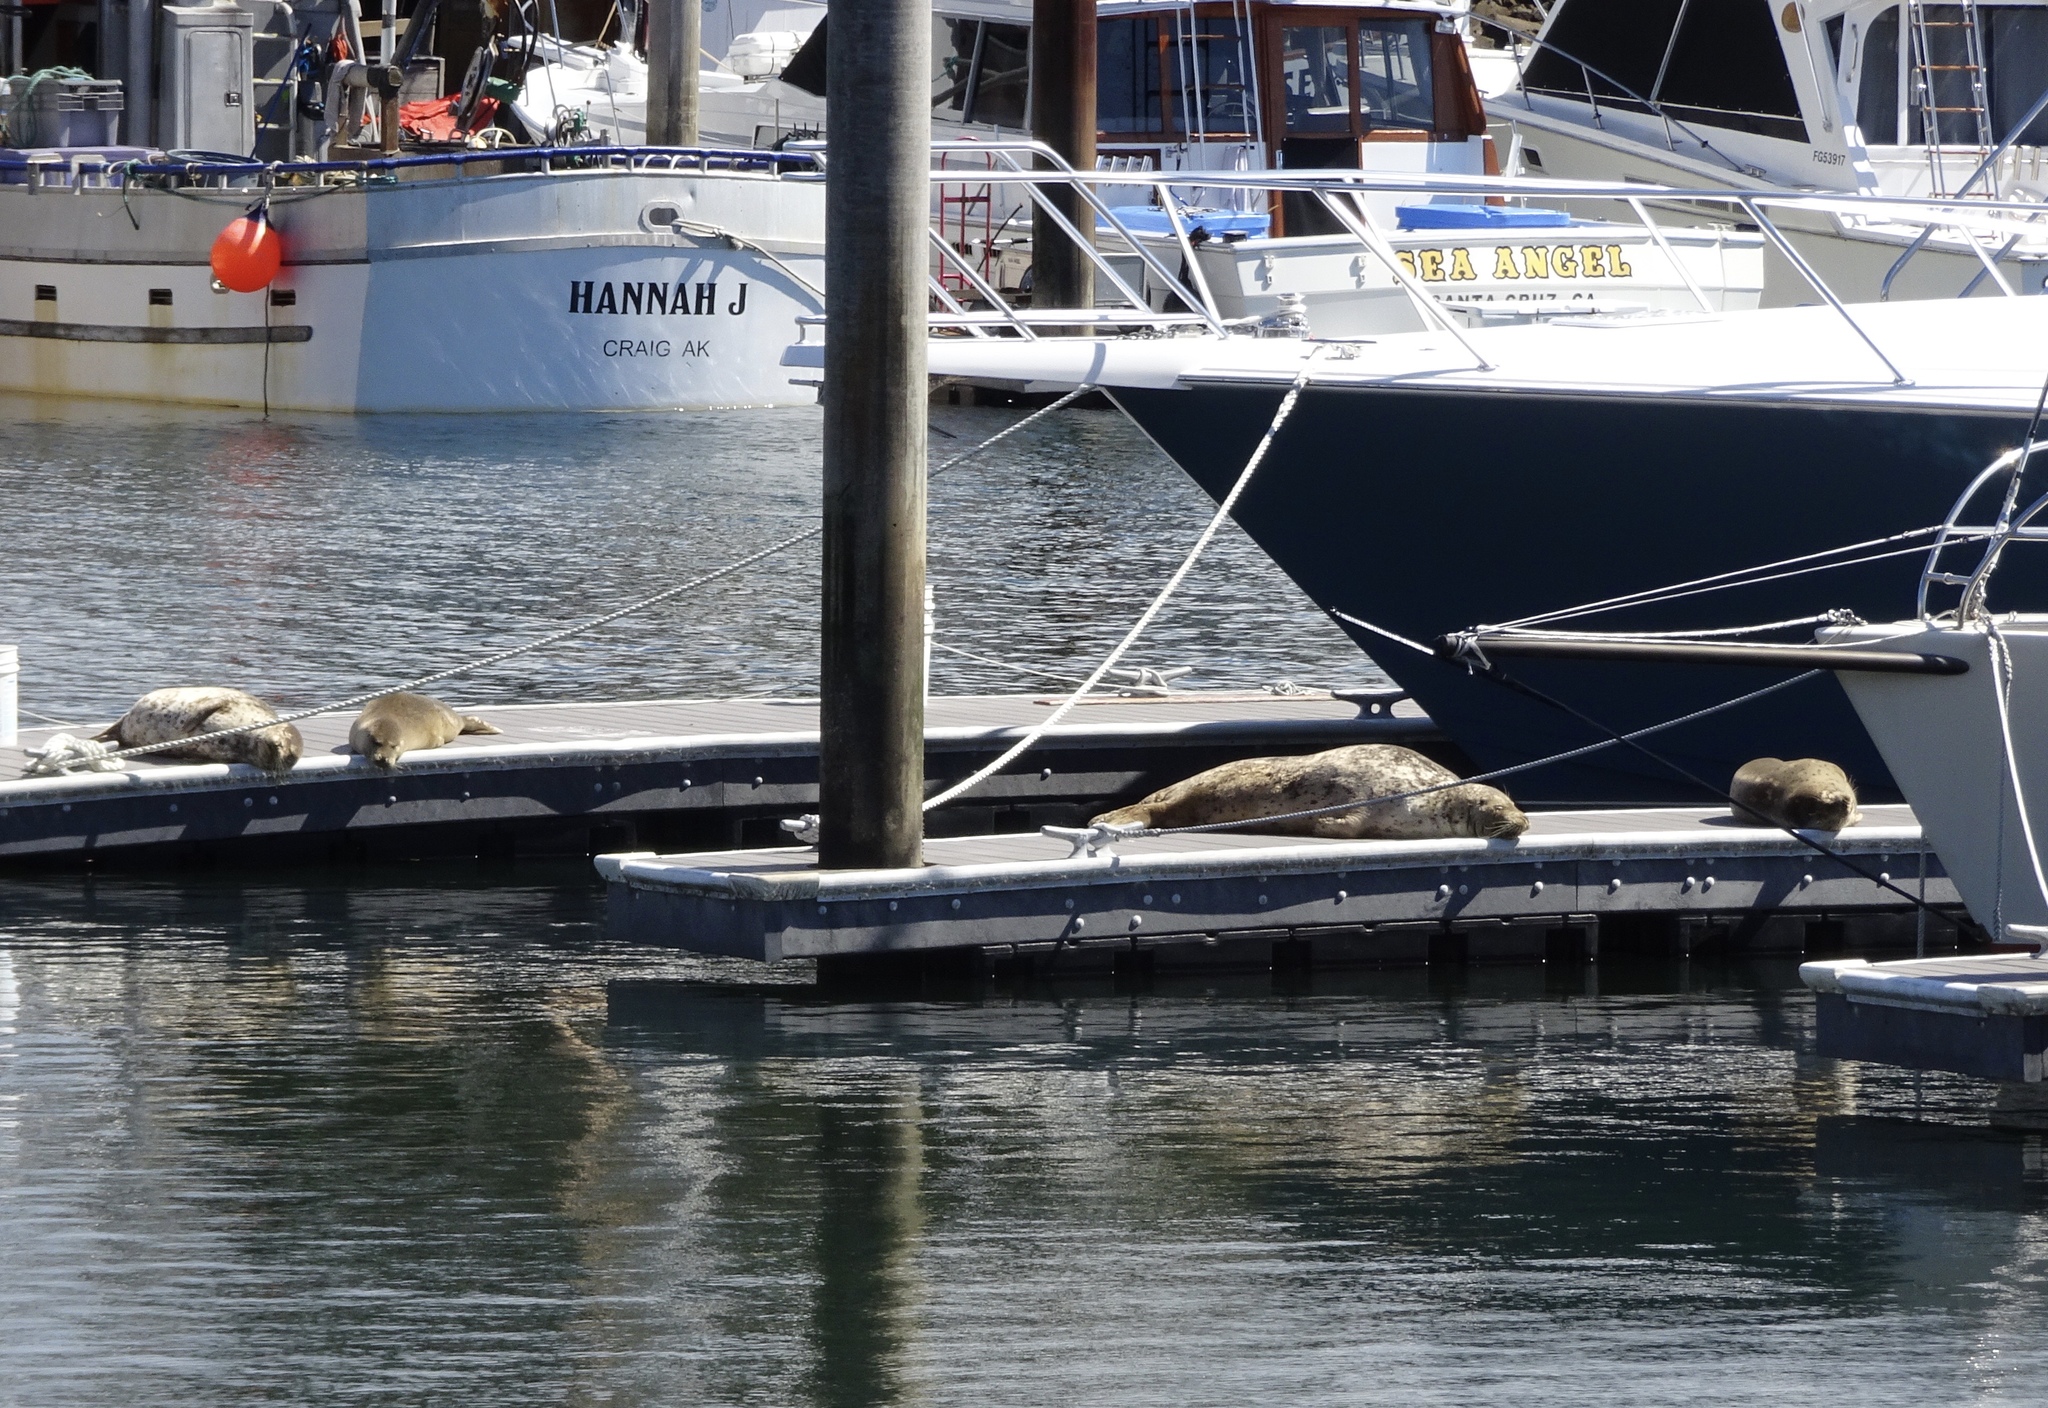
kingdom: Animalia
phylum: Chordata
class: Mammalia
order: Carnivora
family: Phocidae
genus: Phoca
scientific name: Phoca vitulina
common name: Harbor seal
